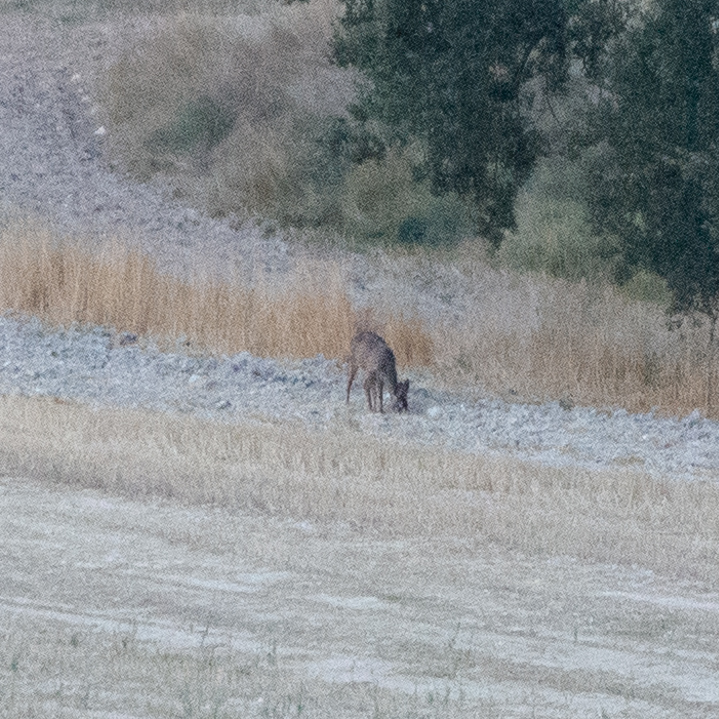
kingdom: Animalia
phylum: Chordata
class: Mammalia
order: Artiodactyla
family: Cervidae
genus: Capreolus
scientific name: Capreolus capreolus
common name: Western roe deer
